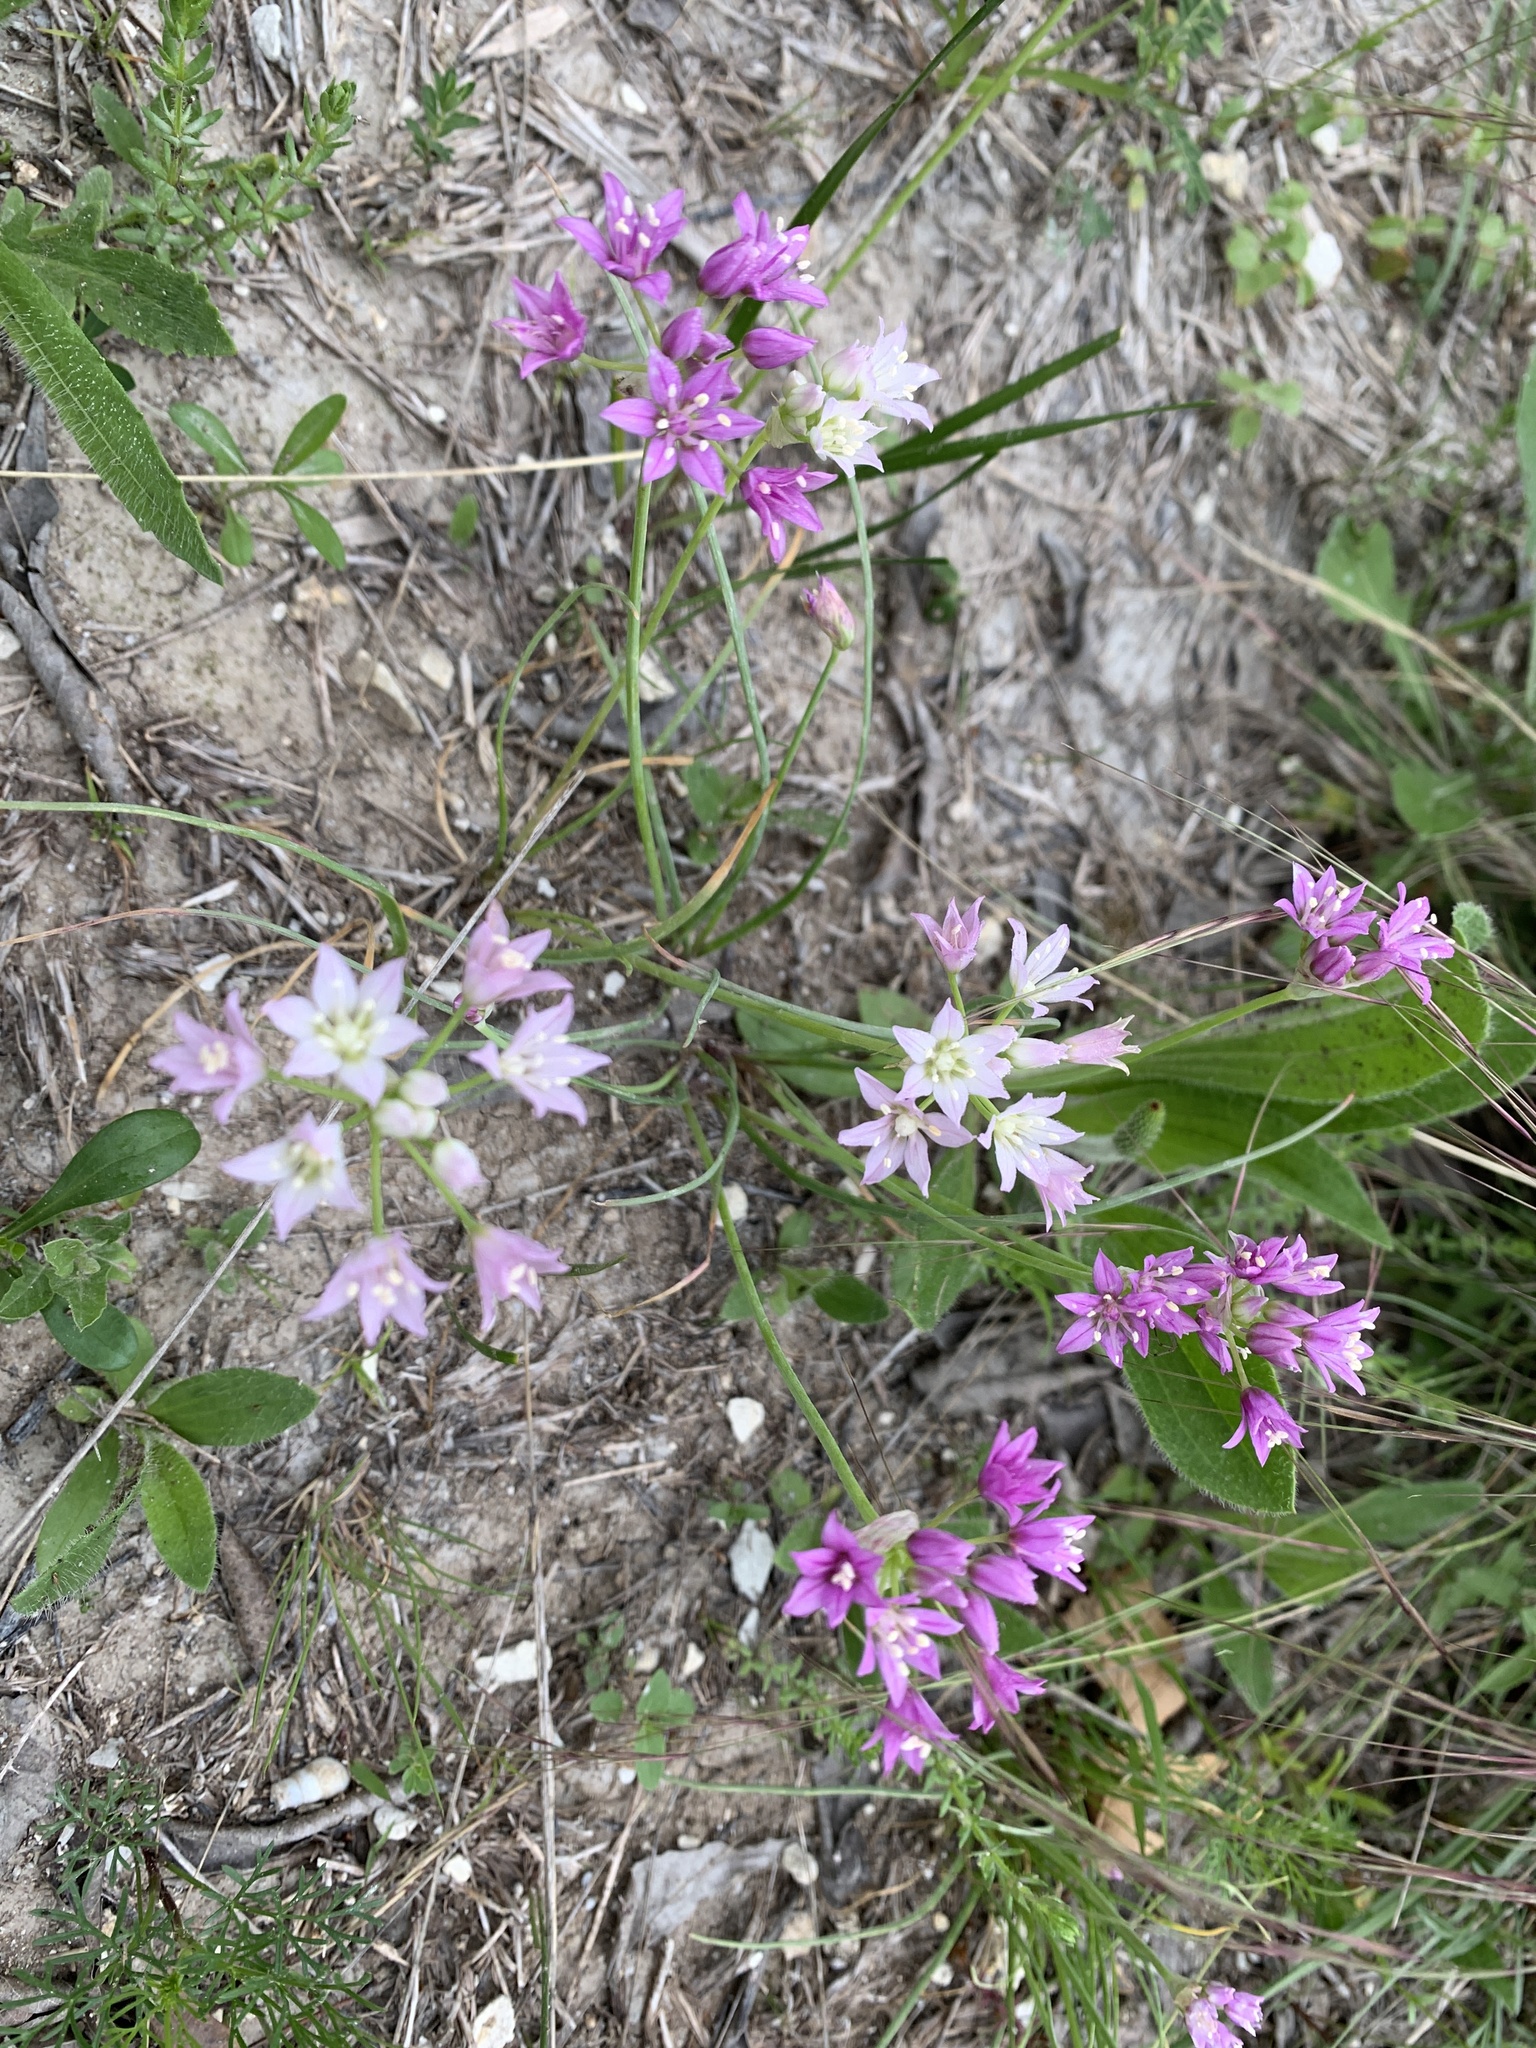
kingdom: Plantae
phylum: Tracheophyta
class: Liliopsida
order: Asparagales
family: Amaryllidaceae
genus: Allium
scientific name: Allium drummondii
